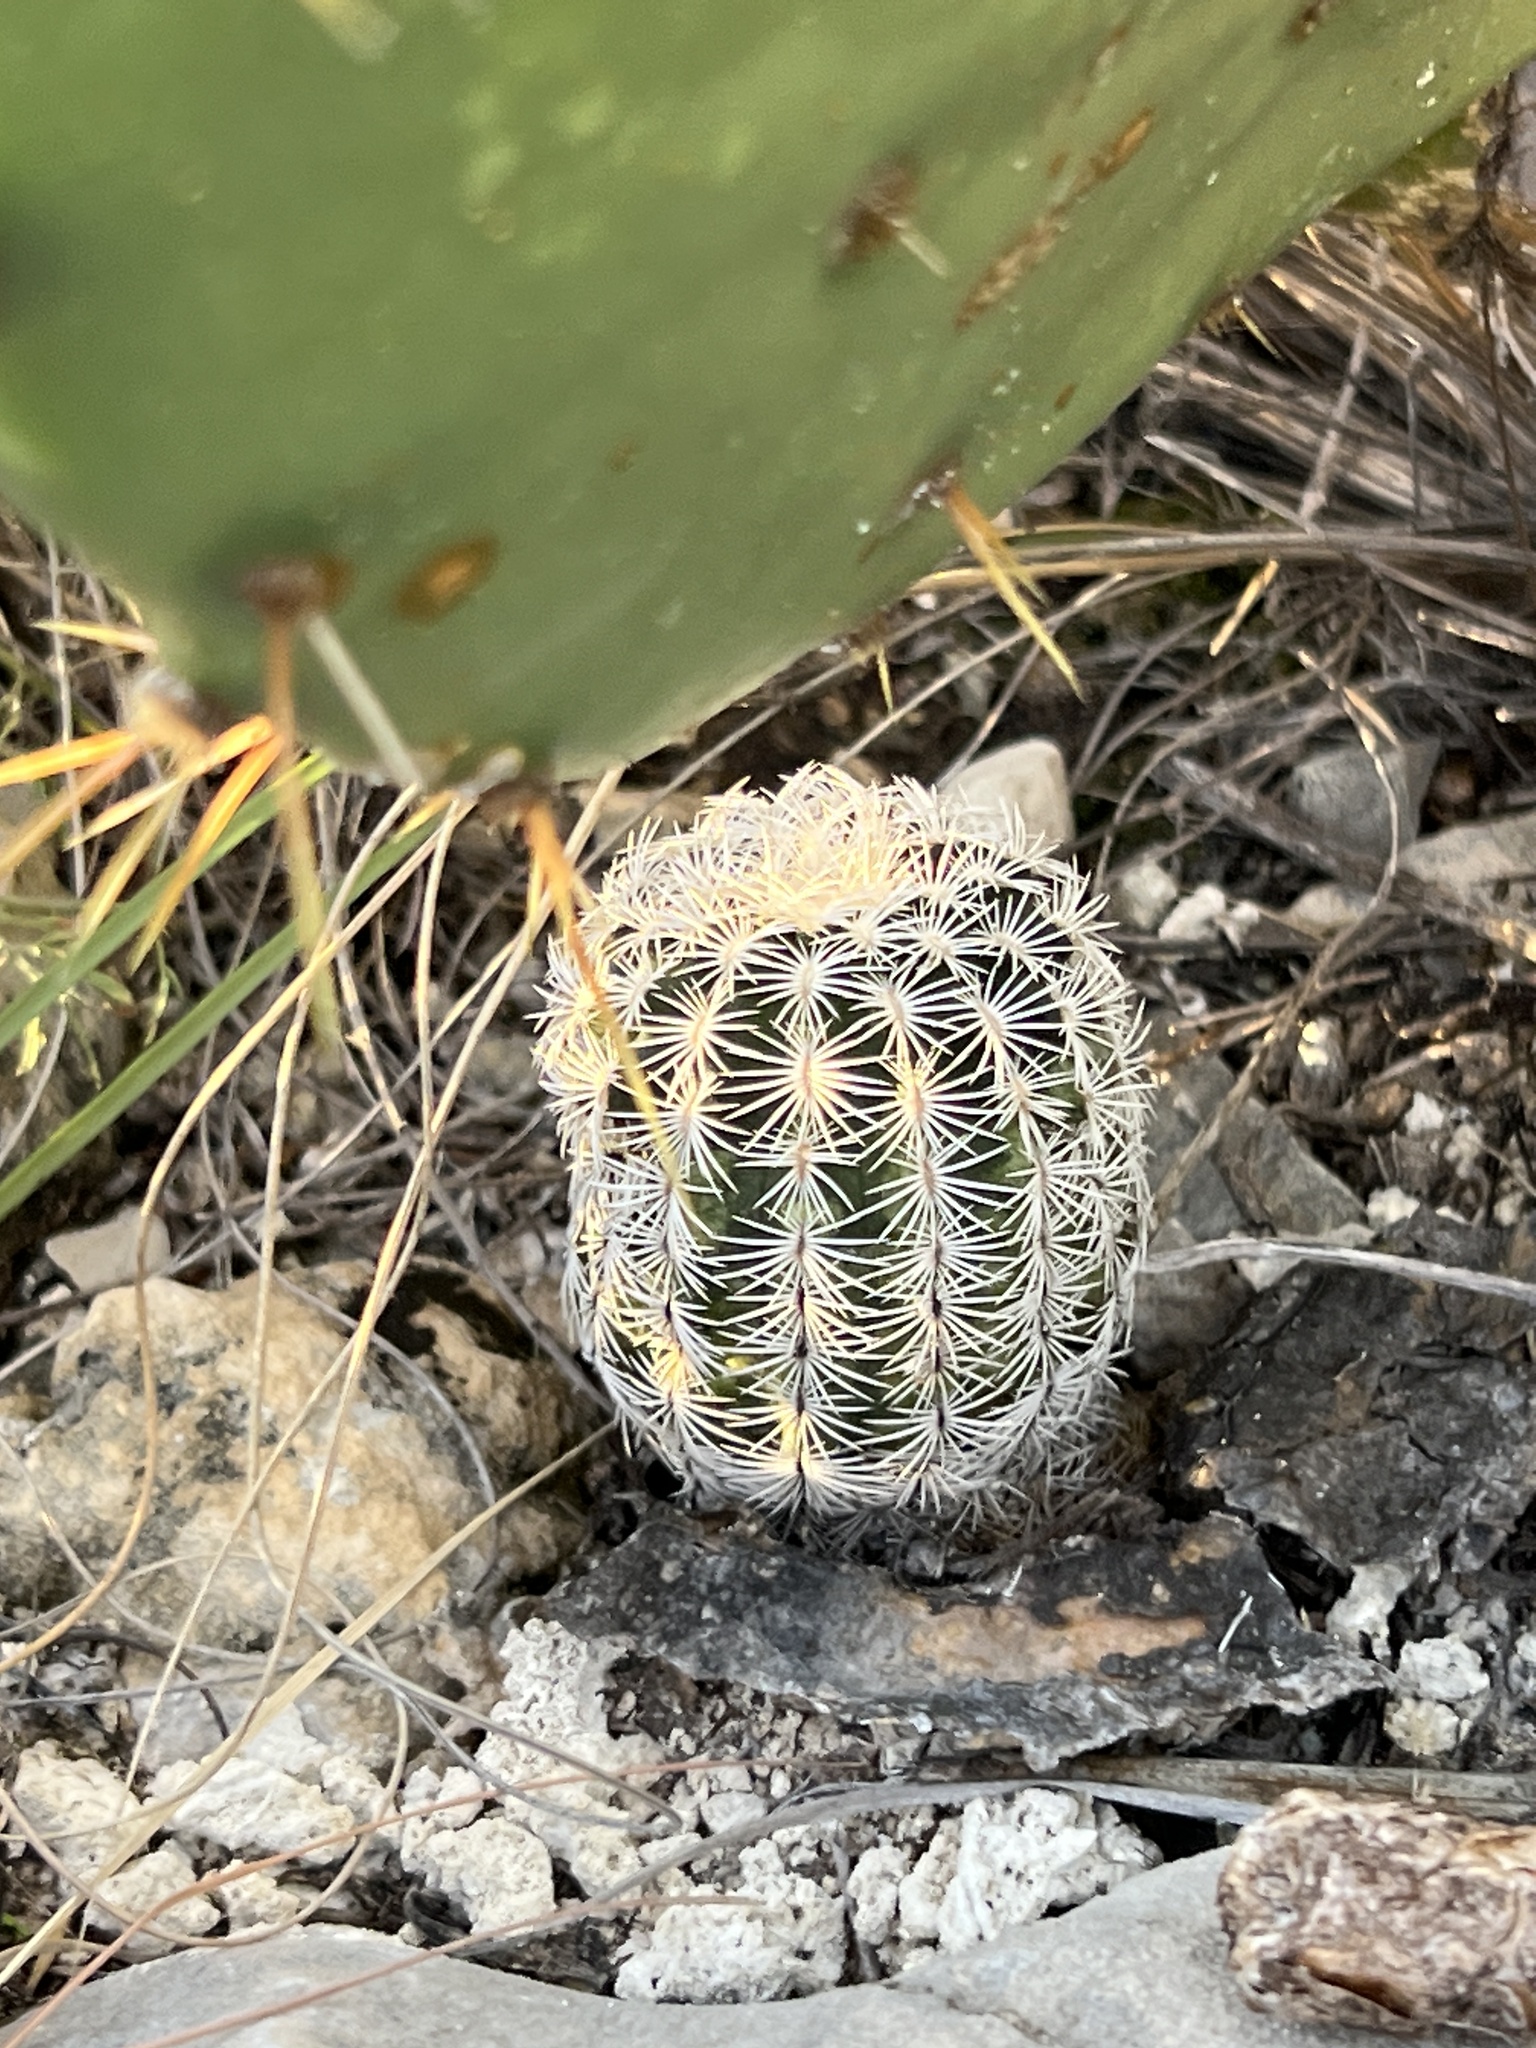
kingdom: Plantae
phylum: Tracheophyta
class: Magnoliopsida
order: Caryophyllales
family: Cactaceae
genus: Echinocereus
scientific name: Echinocereus reichenbachii
